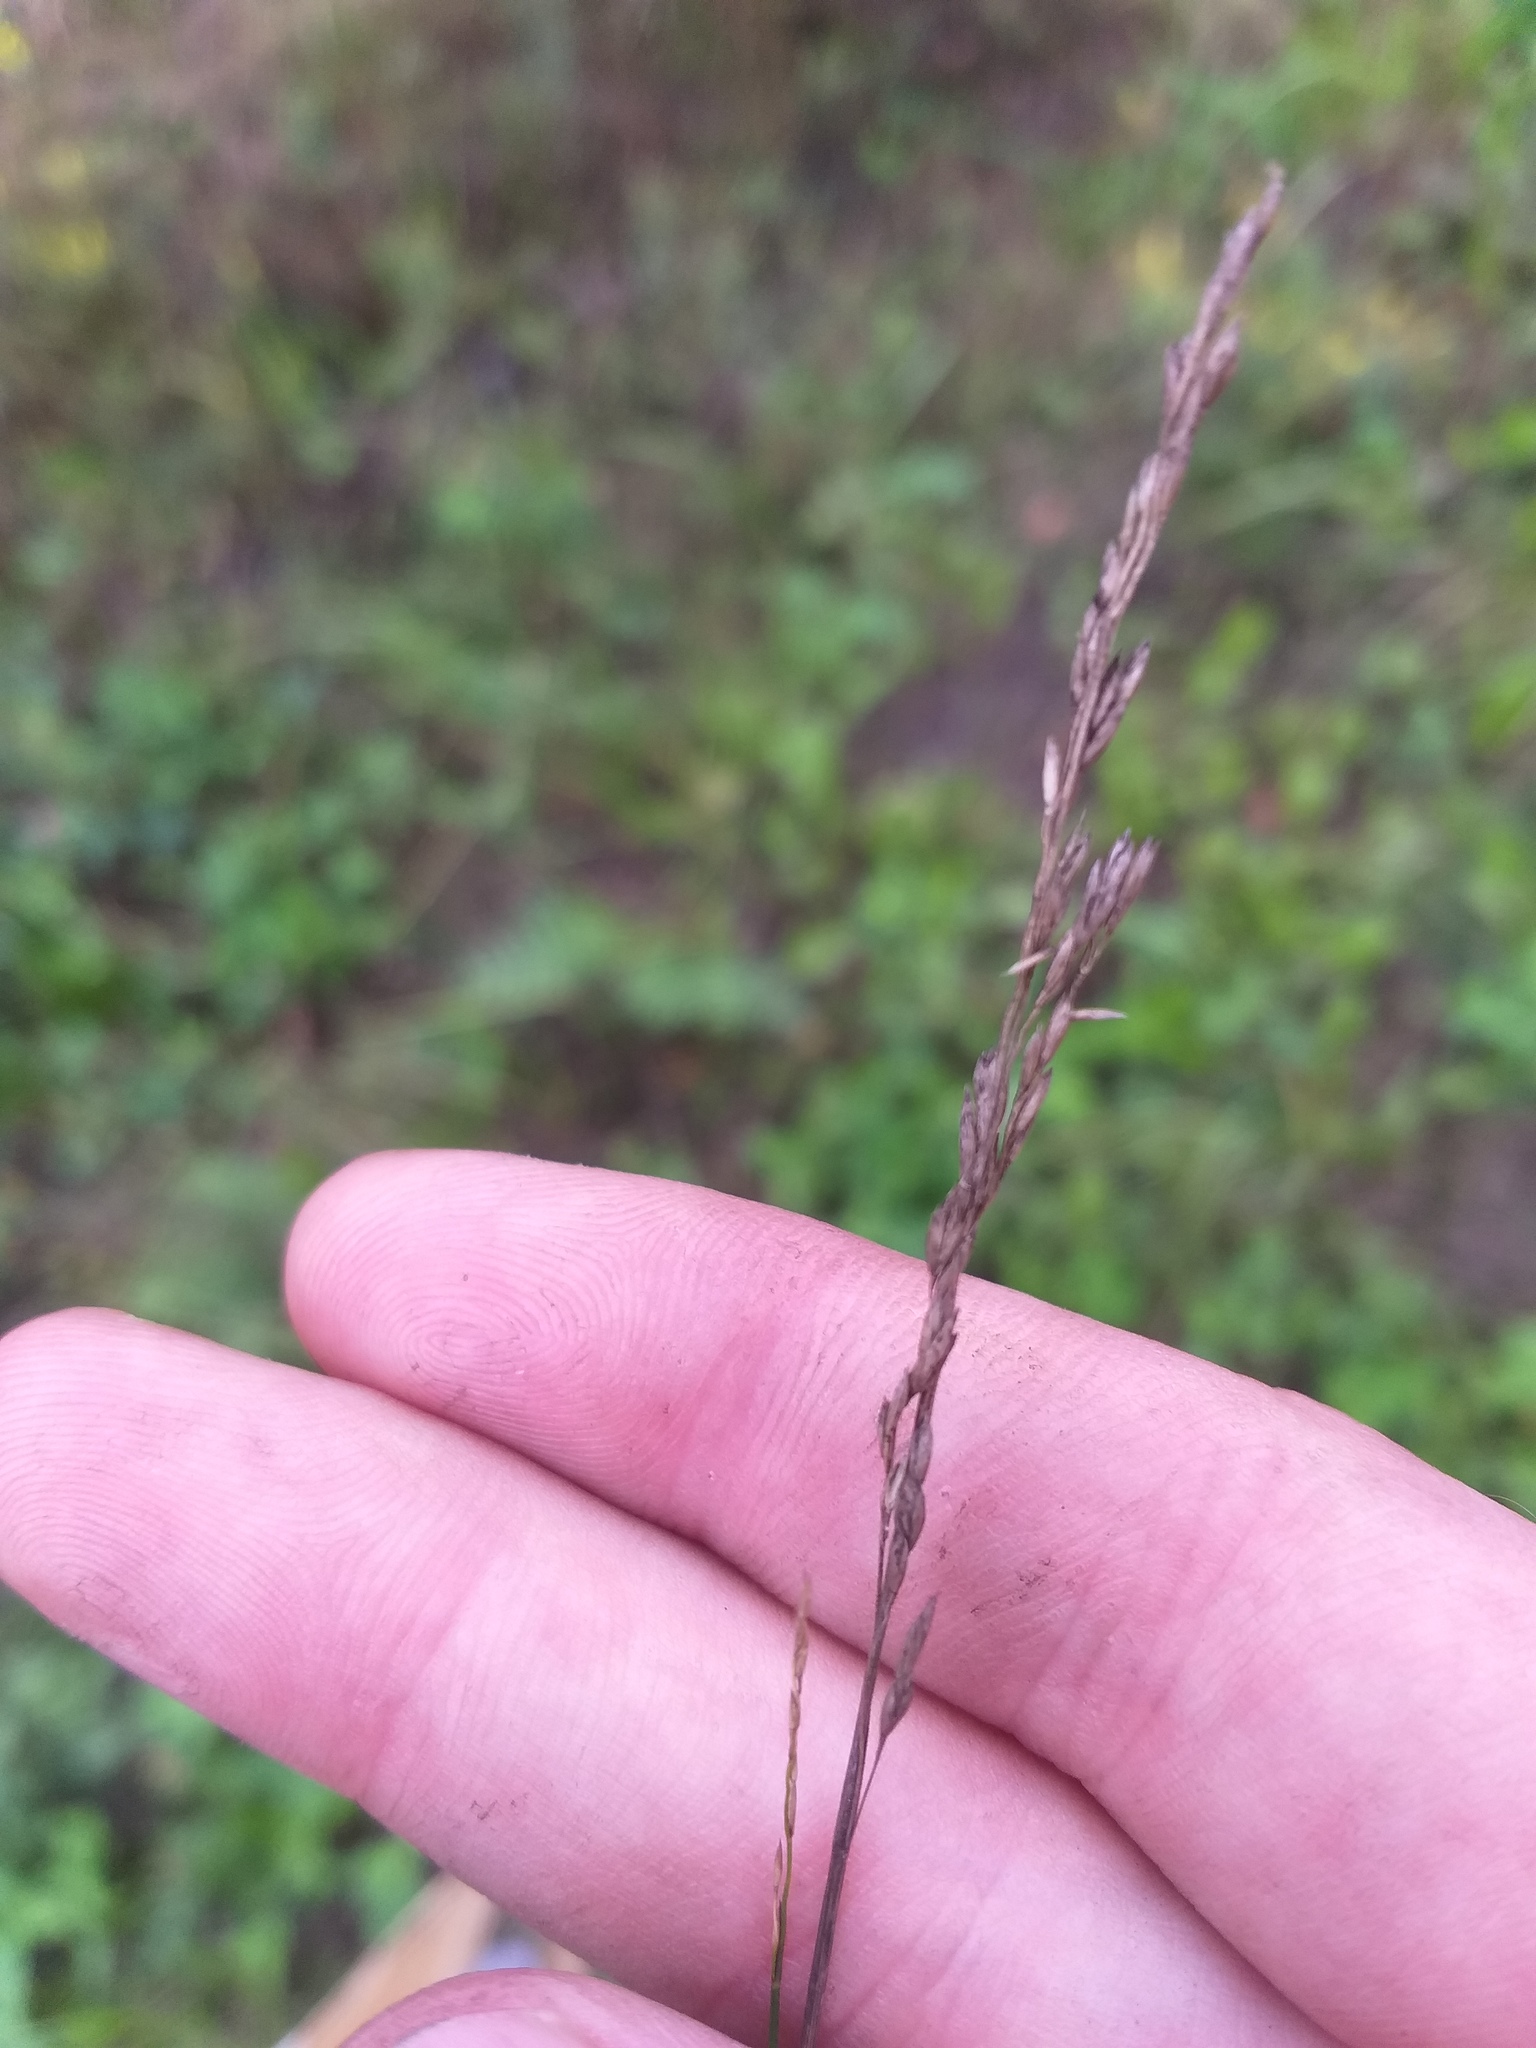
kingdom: Plantae
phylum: Tracheophyta
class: Liliopsida
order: Poales
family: Poaceae
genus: Festuca
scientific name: Festuca rubra
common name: Red fescue
